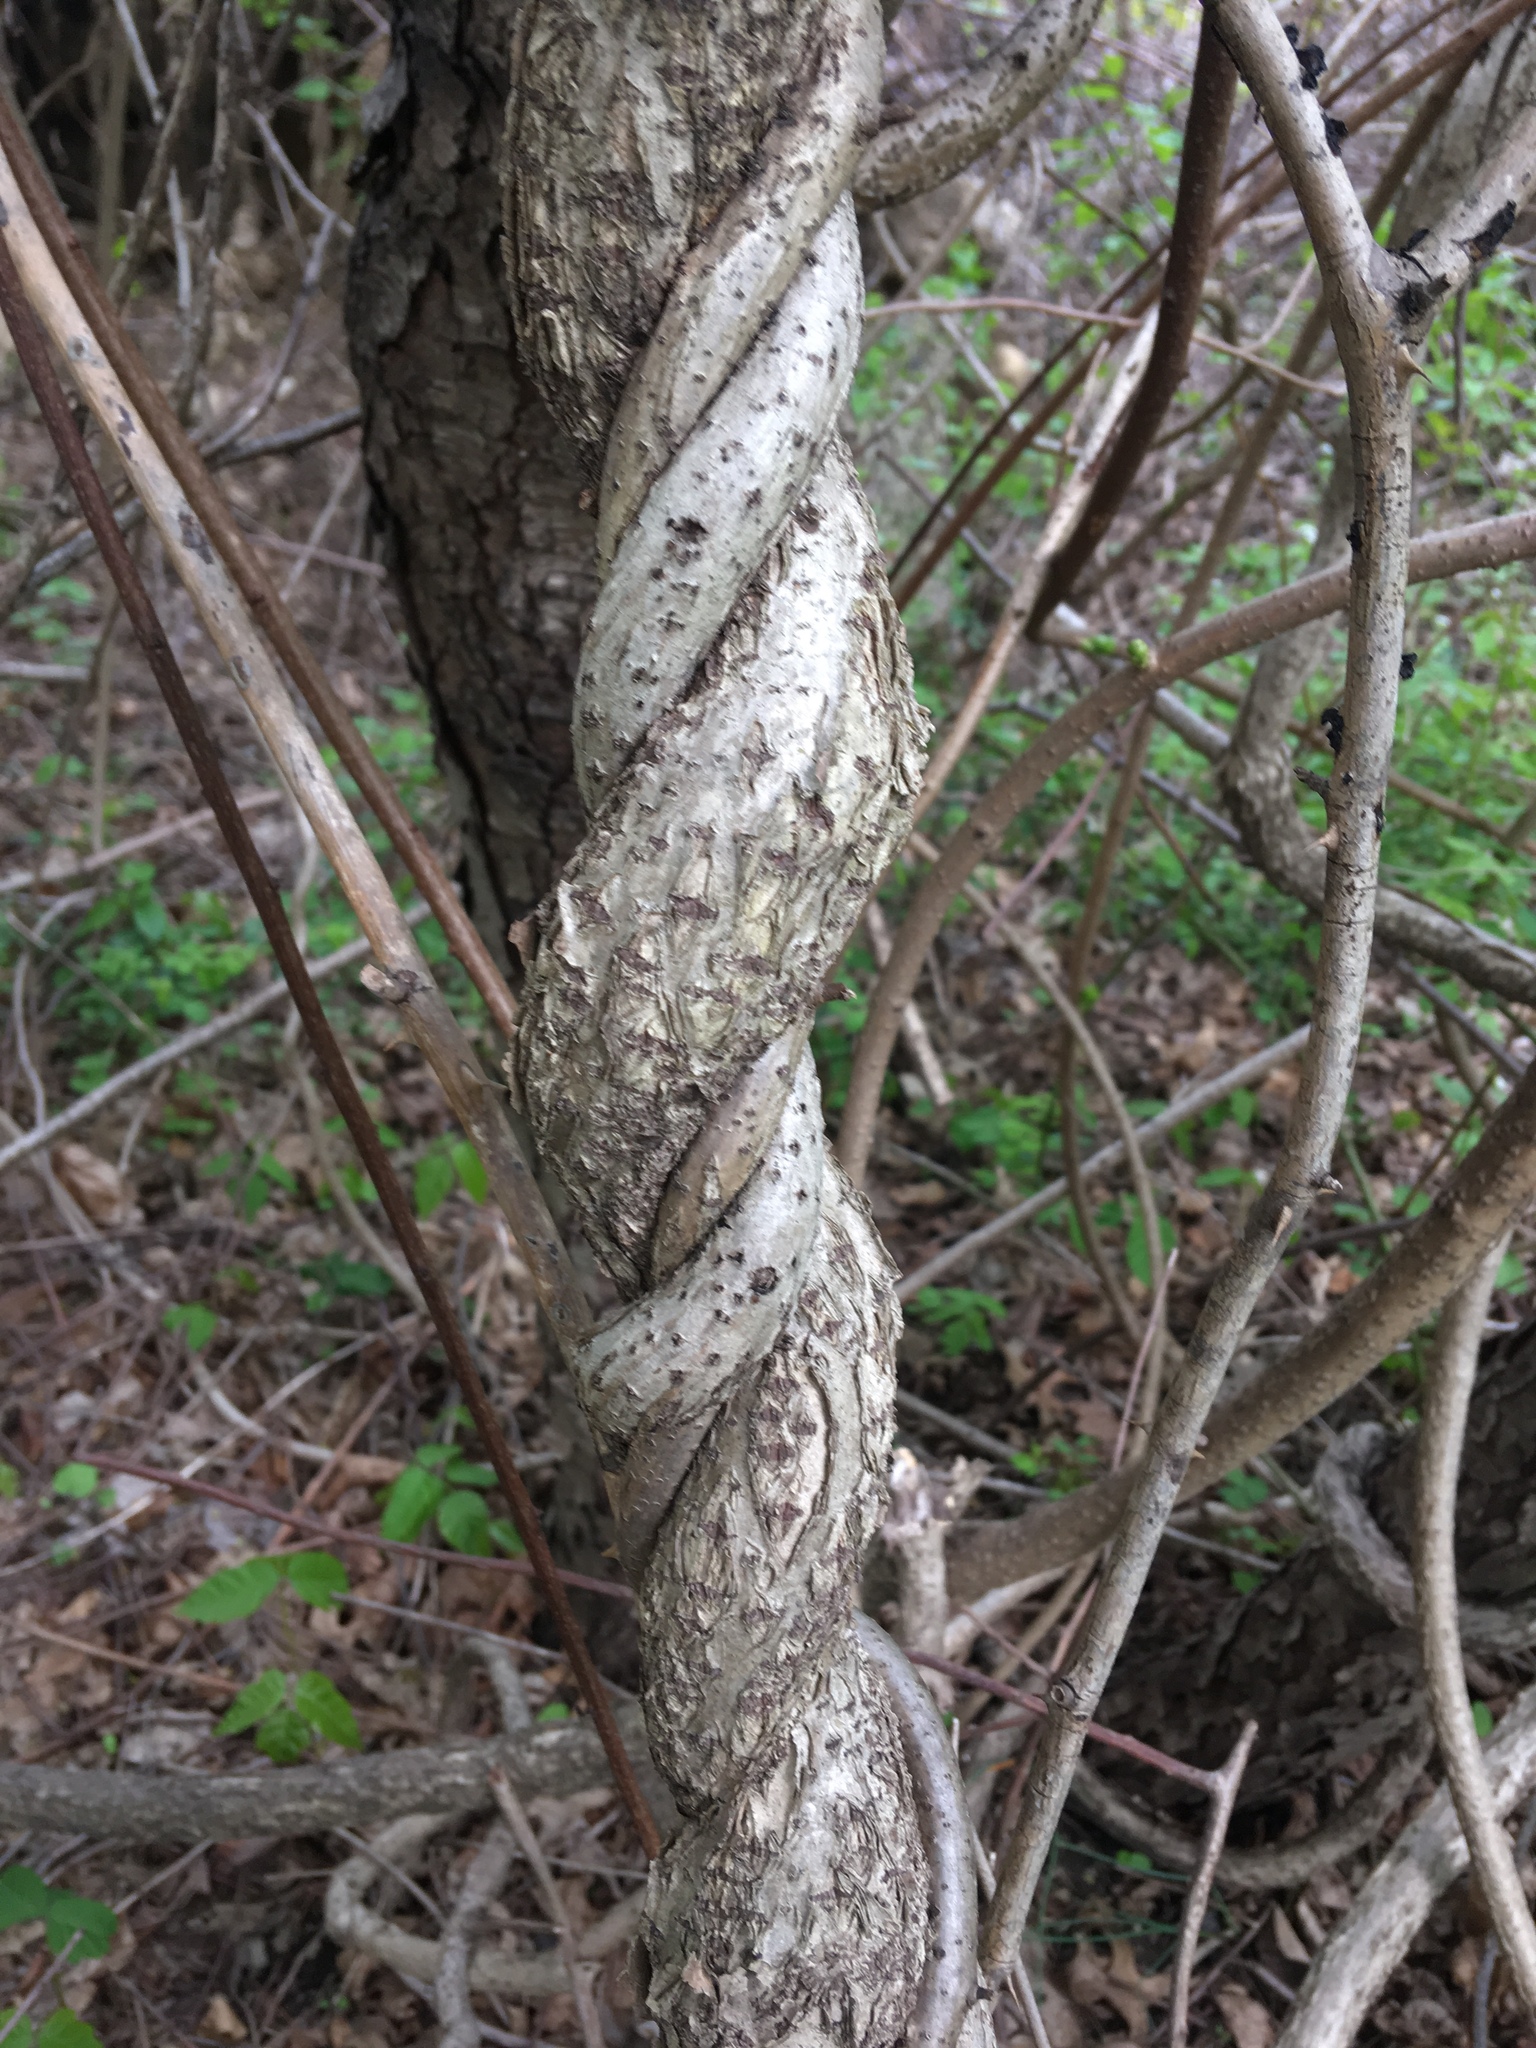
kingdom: Plantae
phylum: Tracheophyta
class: Magnoliopsida
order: Celastrales
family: Celastraceae
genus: Celastrus
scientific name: Celastrus orbiculatus
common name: Oriental bittersweet
